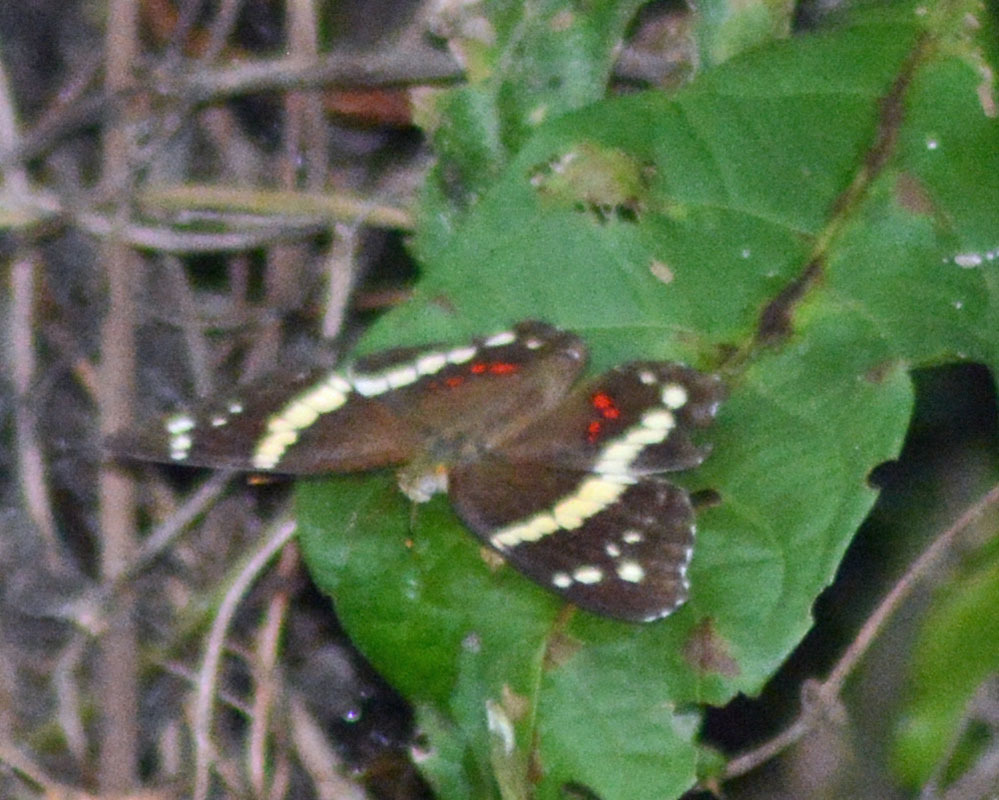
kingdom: Animalia
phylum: Arthropoda
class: Insecta
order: Lepidoptera
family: Nymphalidae
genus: Anartia
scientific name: Anartia fatima
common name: Banded peacock
